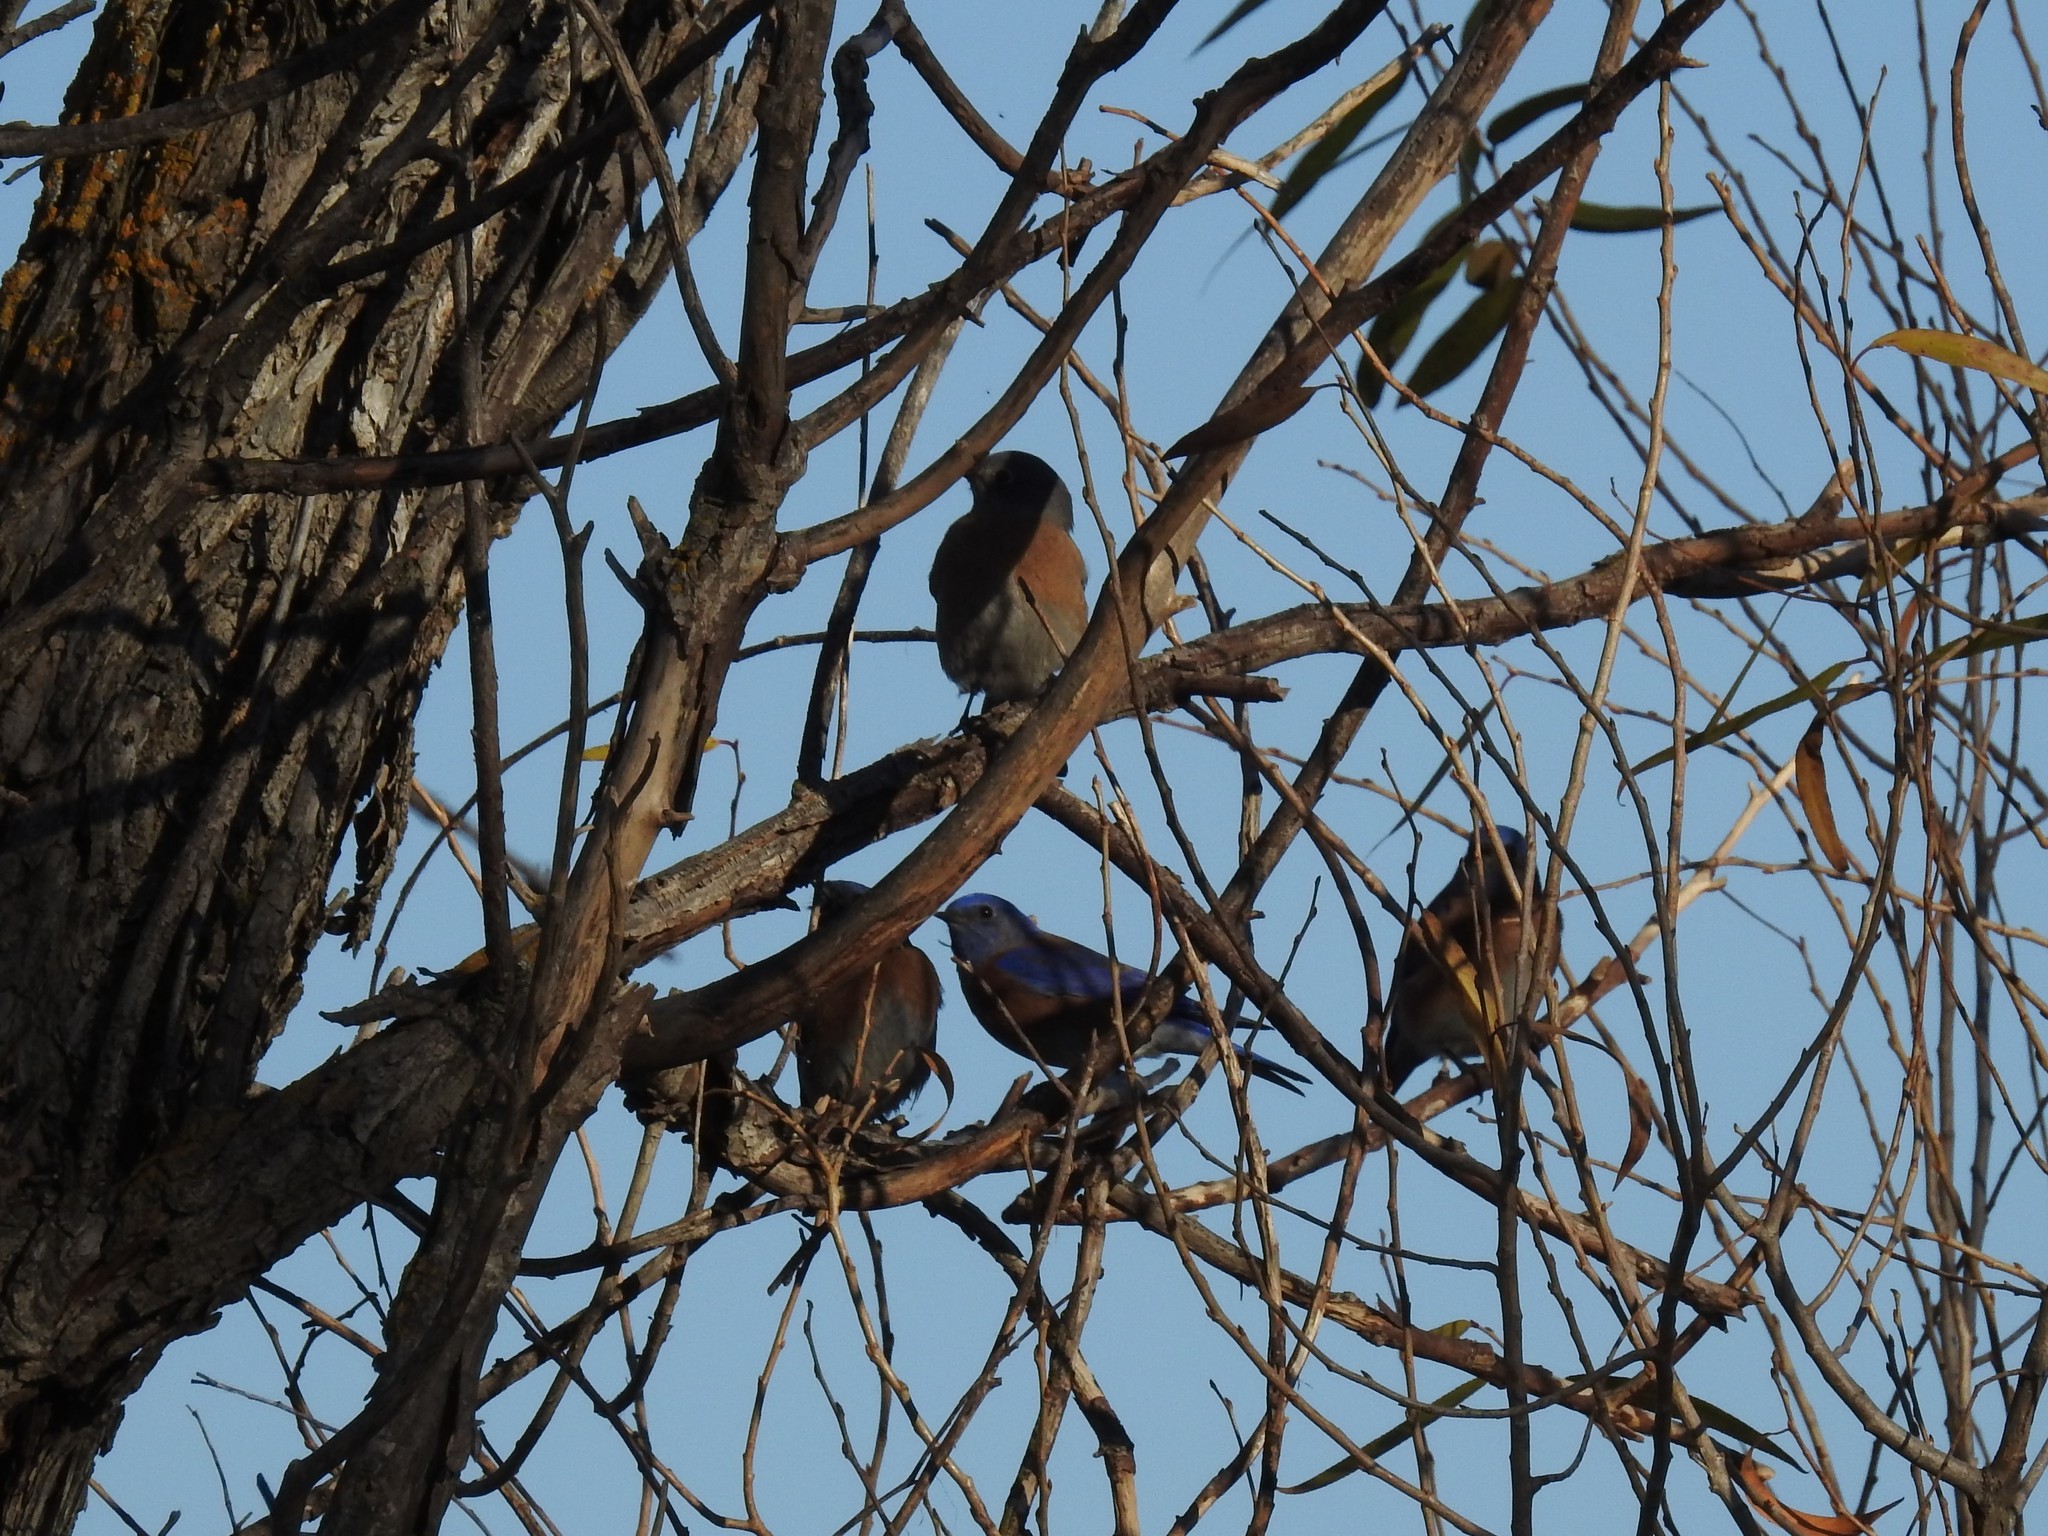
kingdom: Animalia
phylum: Chordata
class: Aves
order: Passeriformes
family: Turdidae
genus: Sialia
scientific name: Sialia mexicana
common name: Western bluebird
